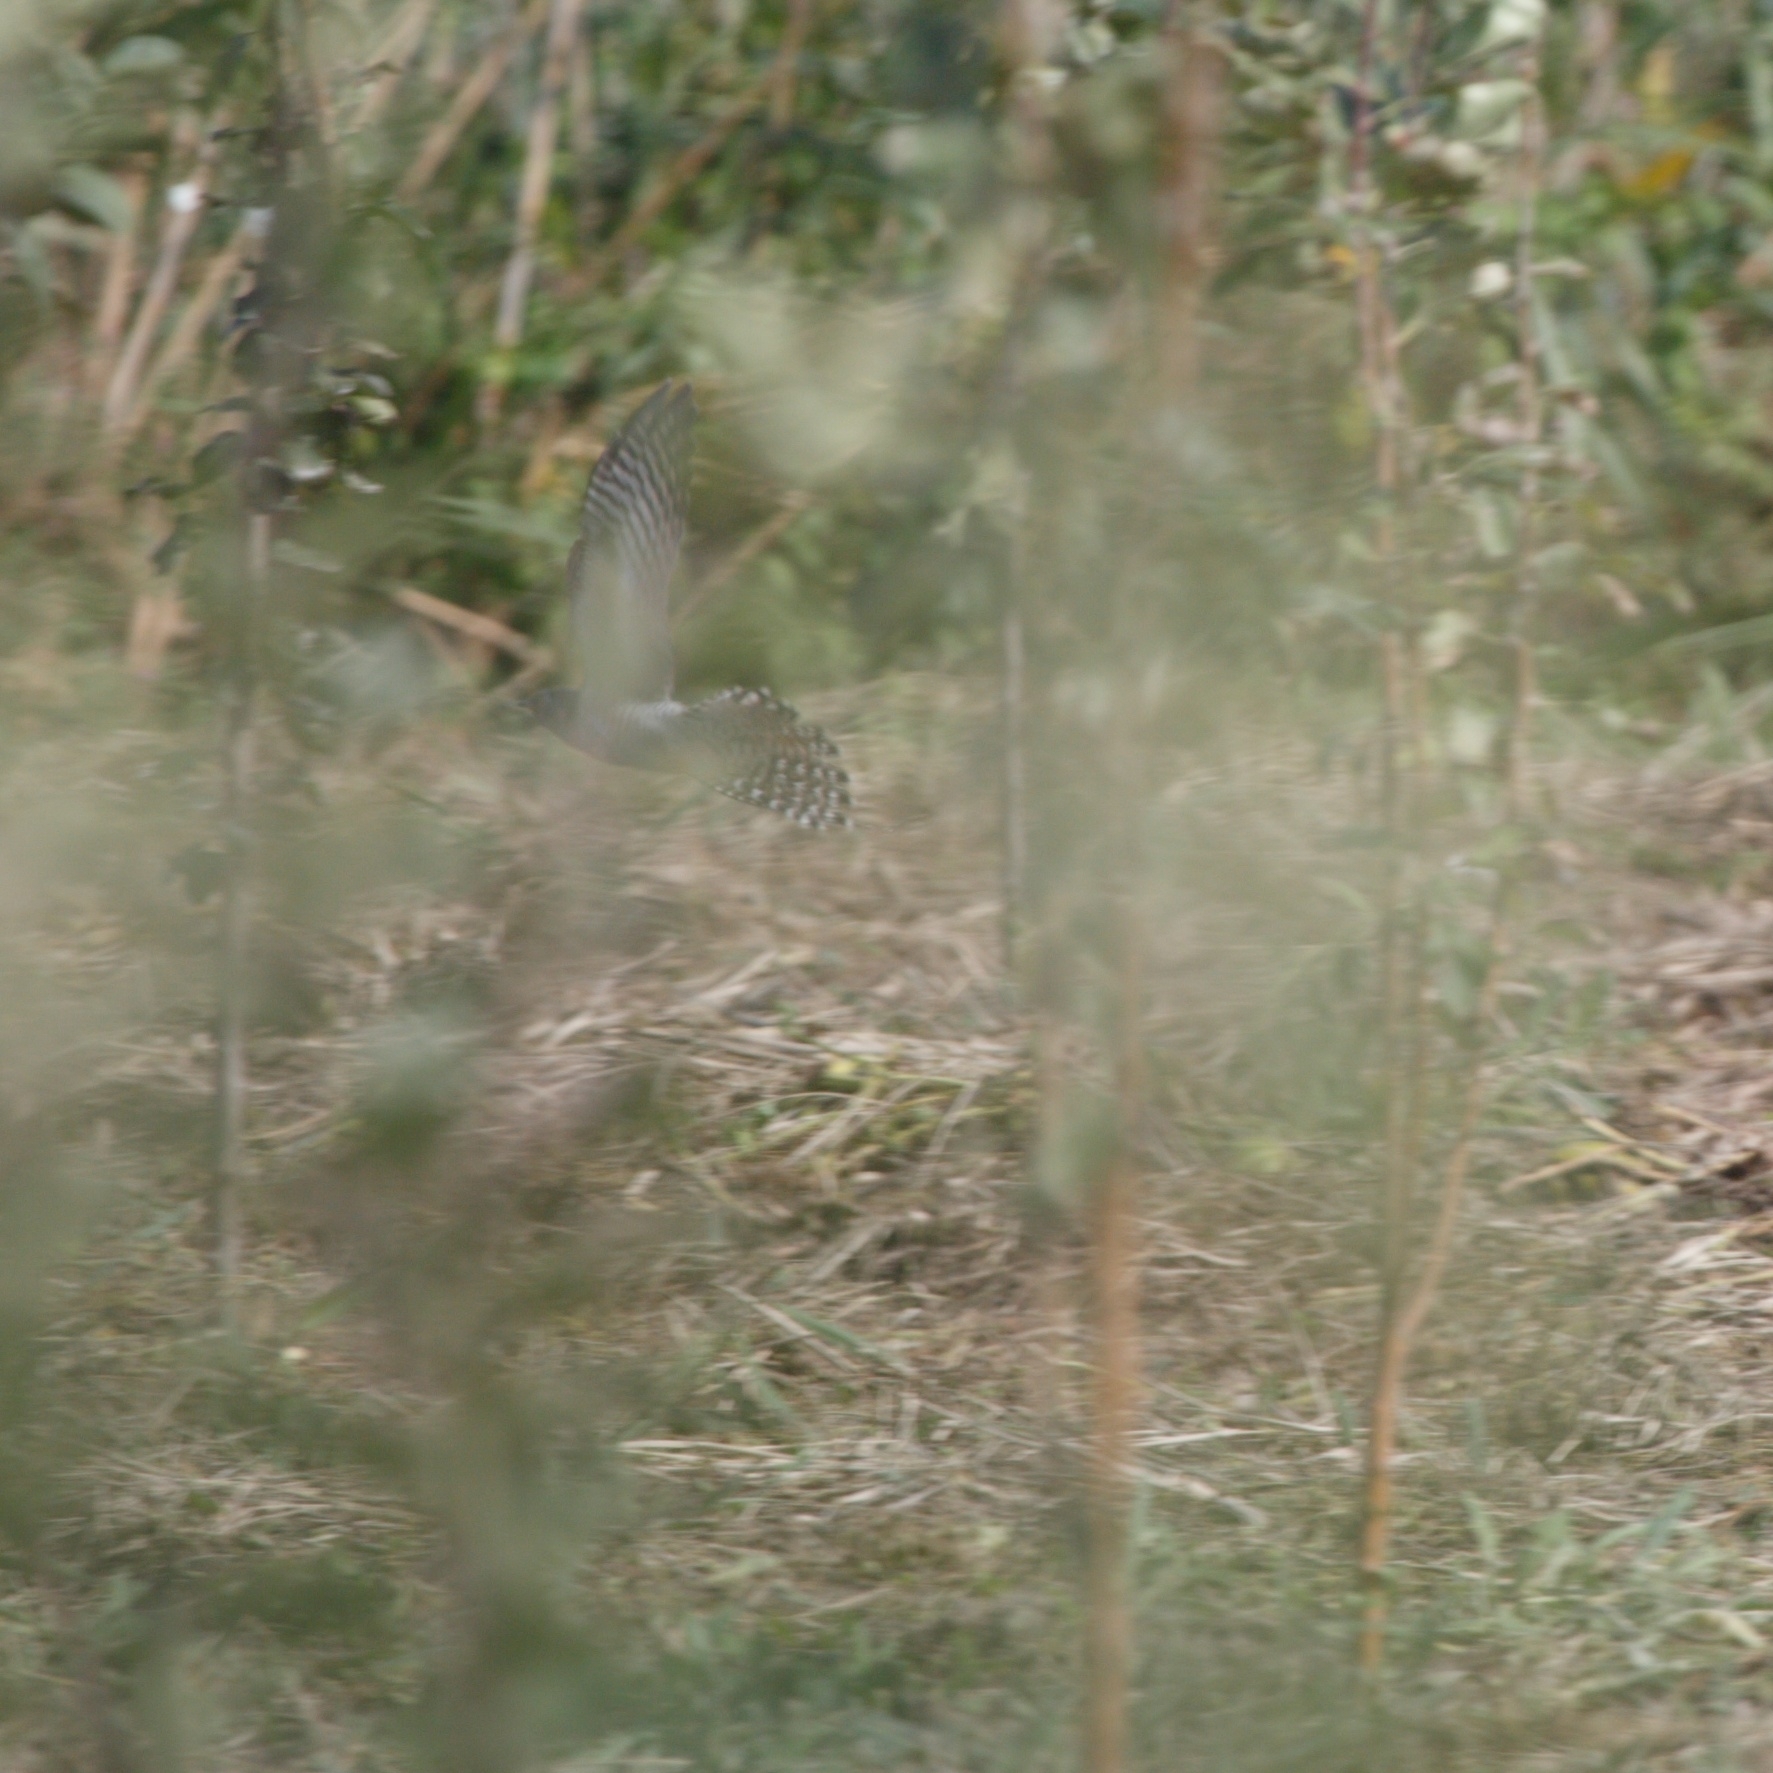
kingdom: Animalia
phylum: Chordata
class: Aves
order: Cuculiformes
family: Cuculidae
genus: Cuculus
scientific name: Cuculus canorus
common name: Common cuckoo
